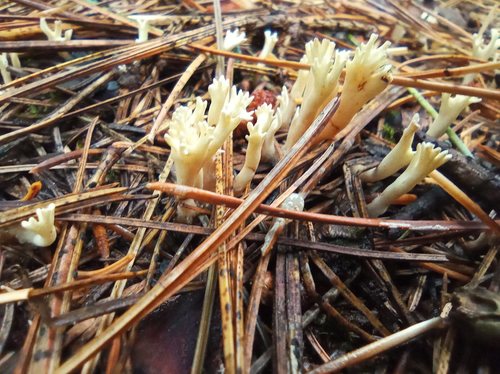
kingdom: Fungi
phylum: Basidiomycota
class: Agaricomycetes
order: Cantharellales
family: Hydnaceae
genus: Clavulina
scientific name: Clavulina coralloides
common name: Crested coral
